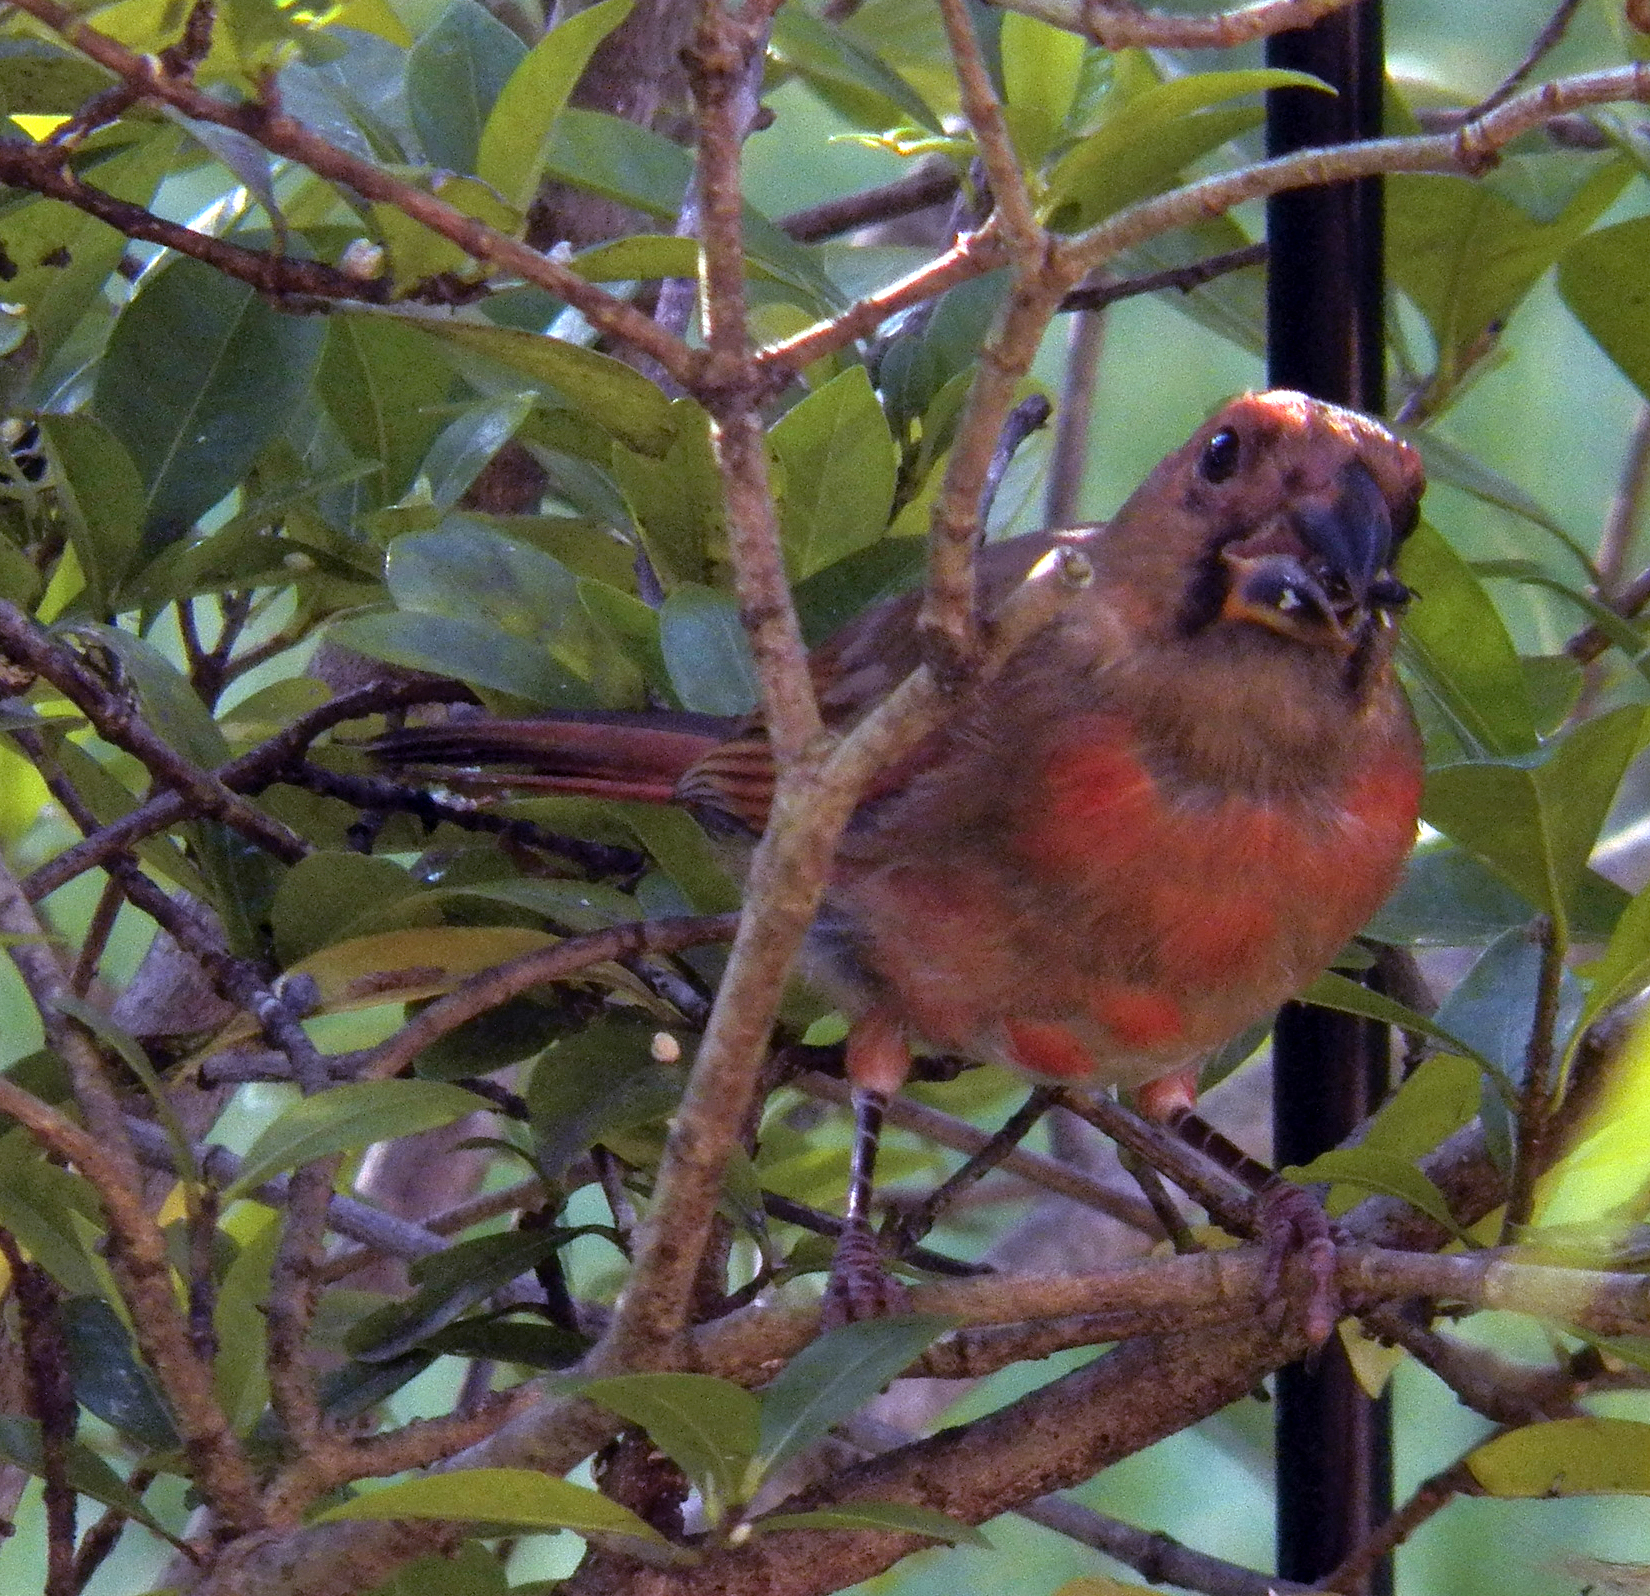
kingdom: Animalia
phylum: Chordata
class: Aves
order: Passeriformes
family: Cardinalidae
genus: Cardinalis
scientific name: Cardinalis cardinalis
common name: Northern cardinal
